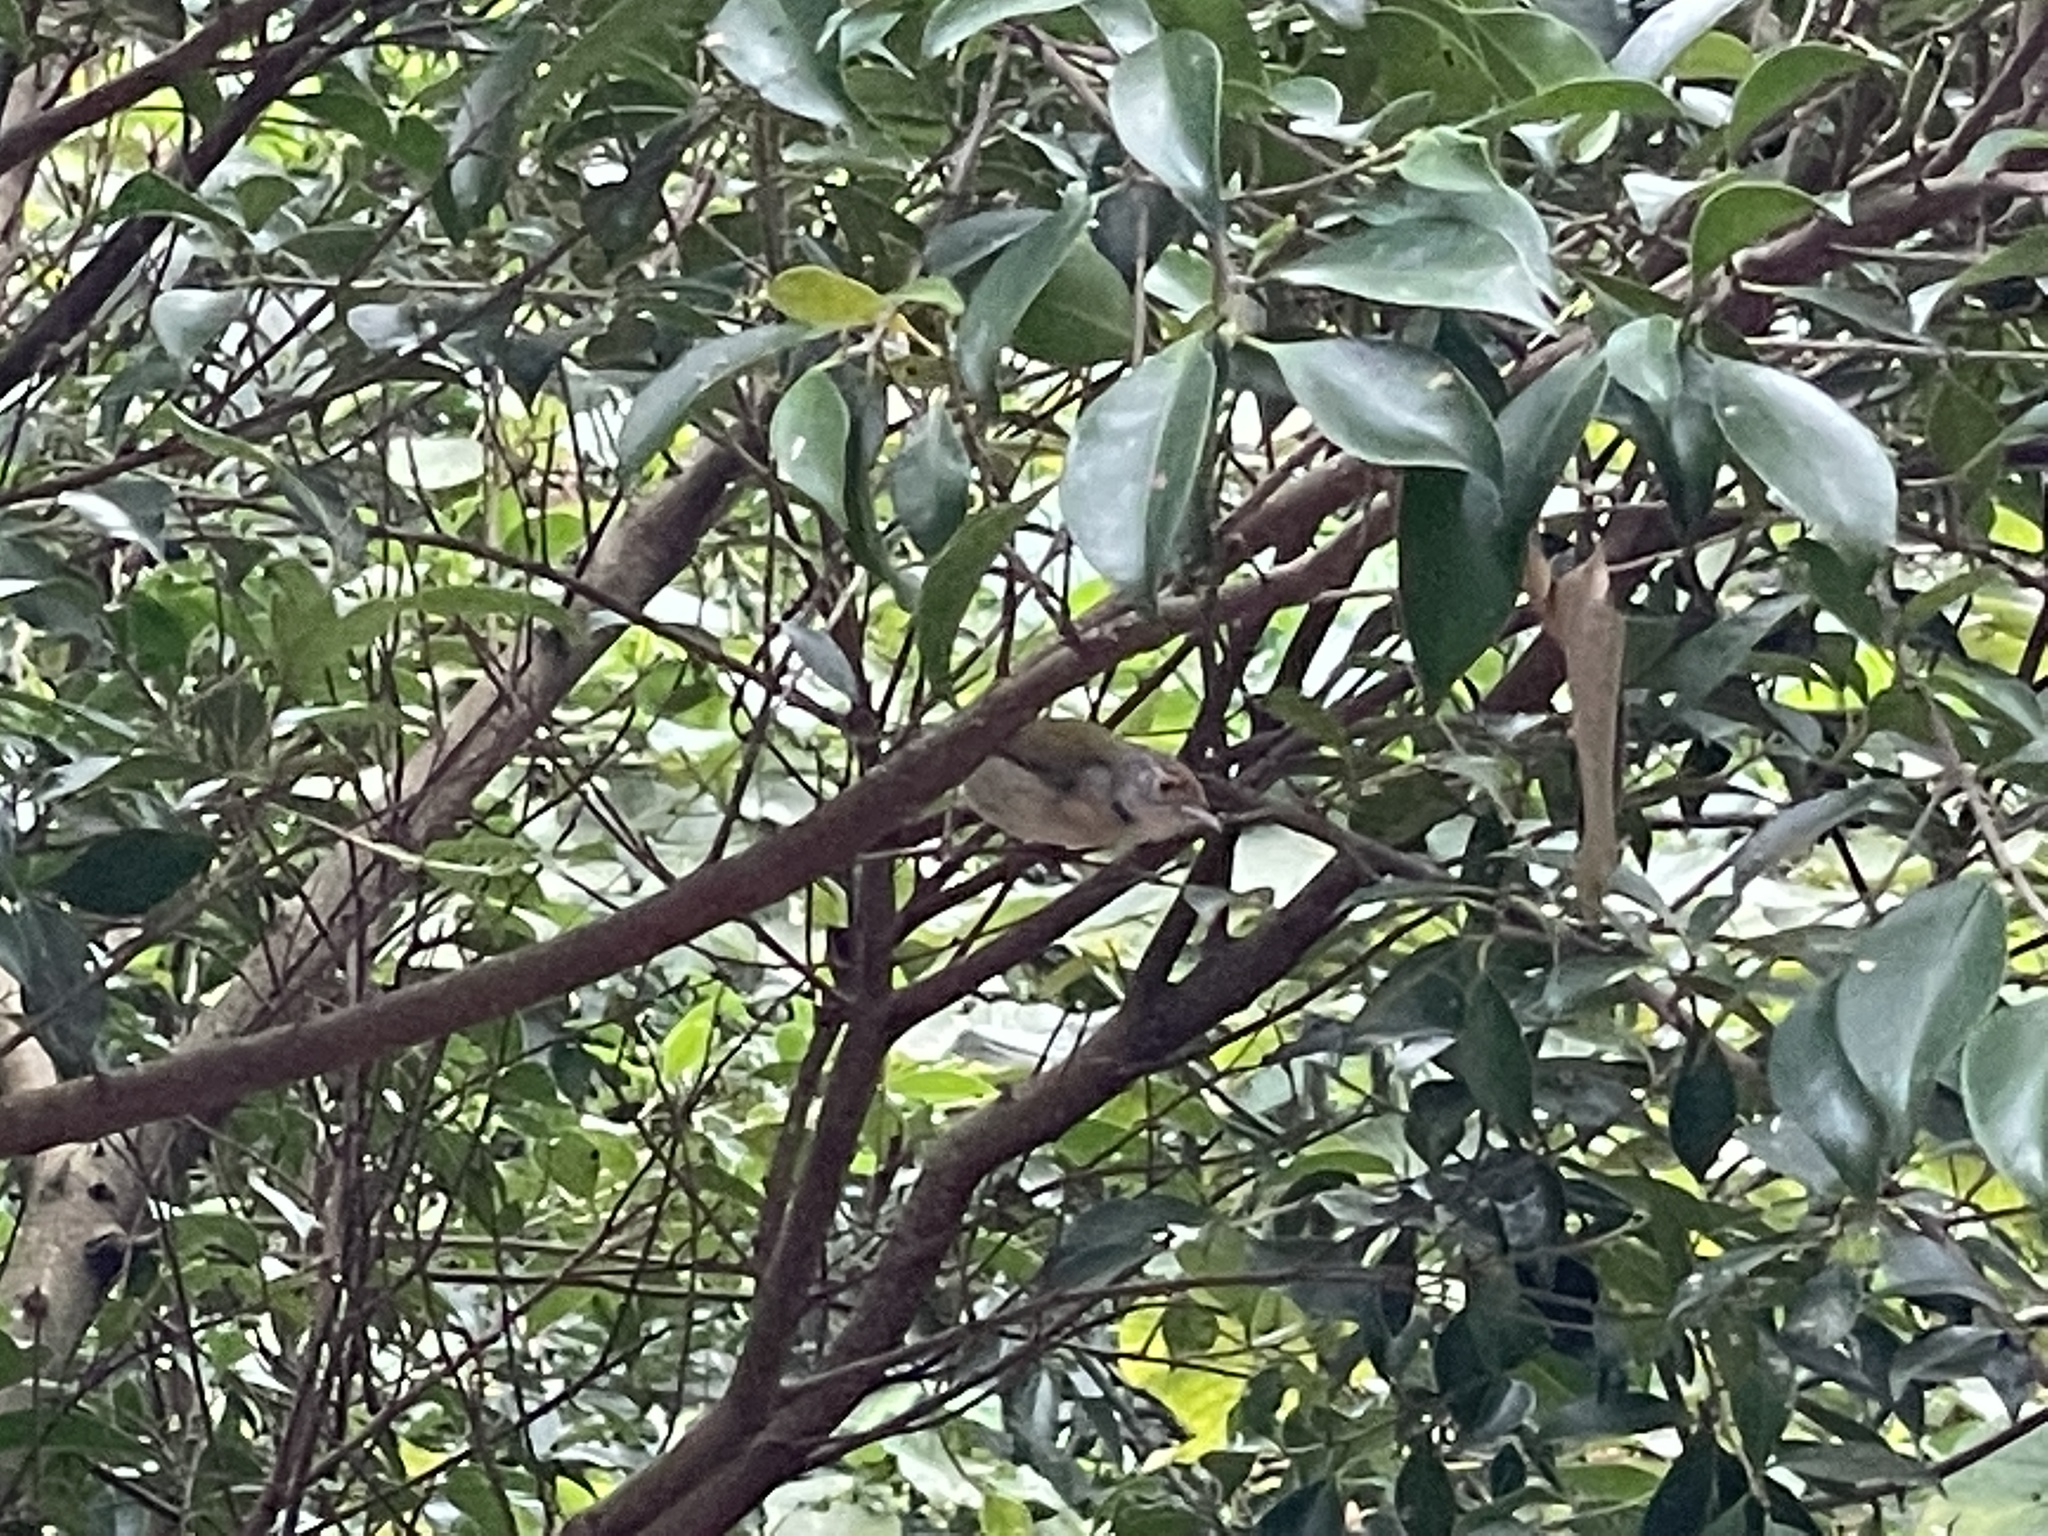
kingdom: Animalia
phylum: Chordata
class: Aves
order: Passeriformes
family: Cisticolidae
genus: Orthotomus
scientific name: Orthotomus sutorius
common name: Common tailorbird
